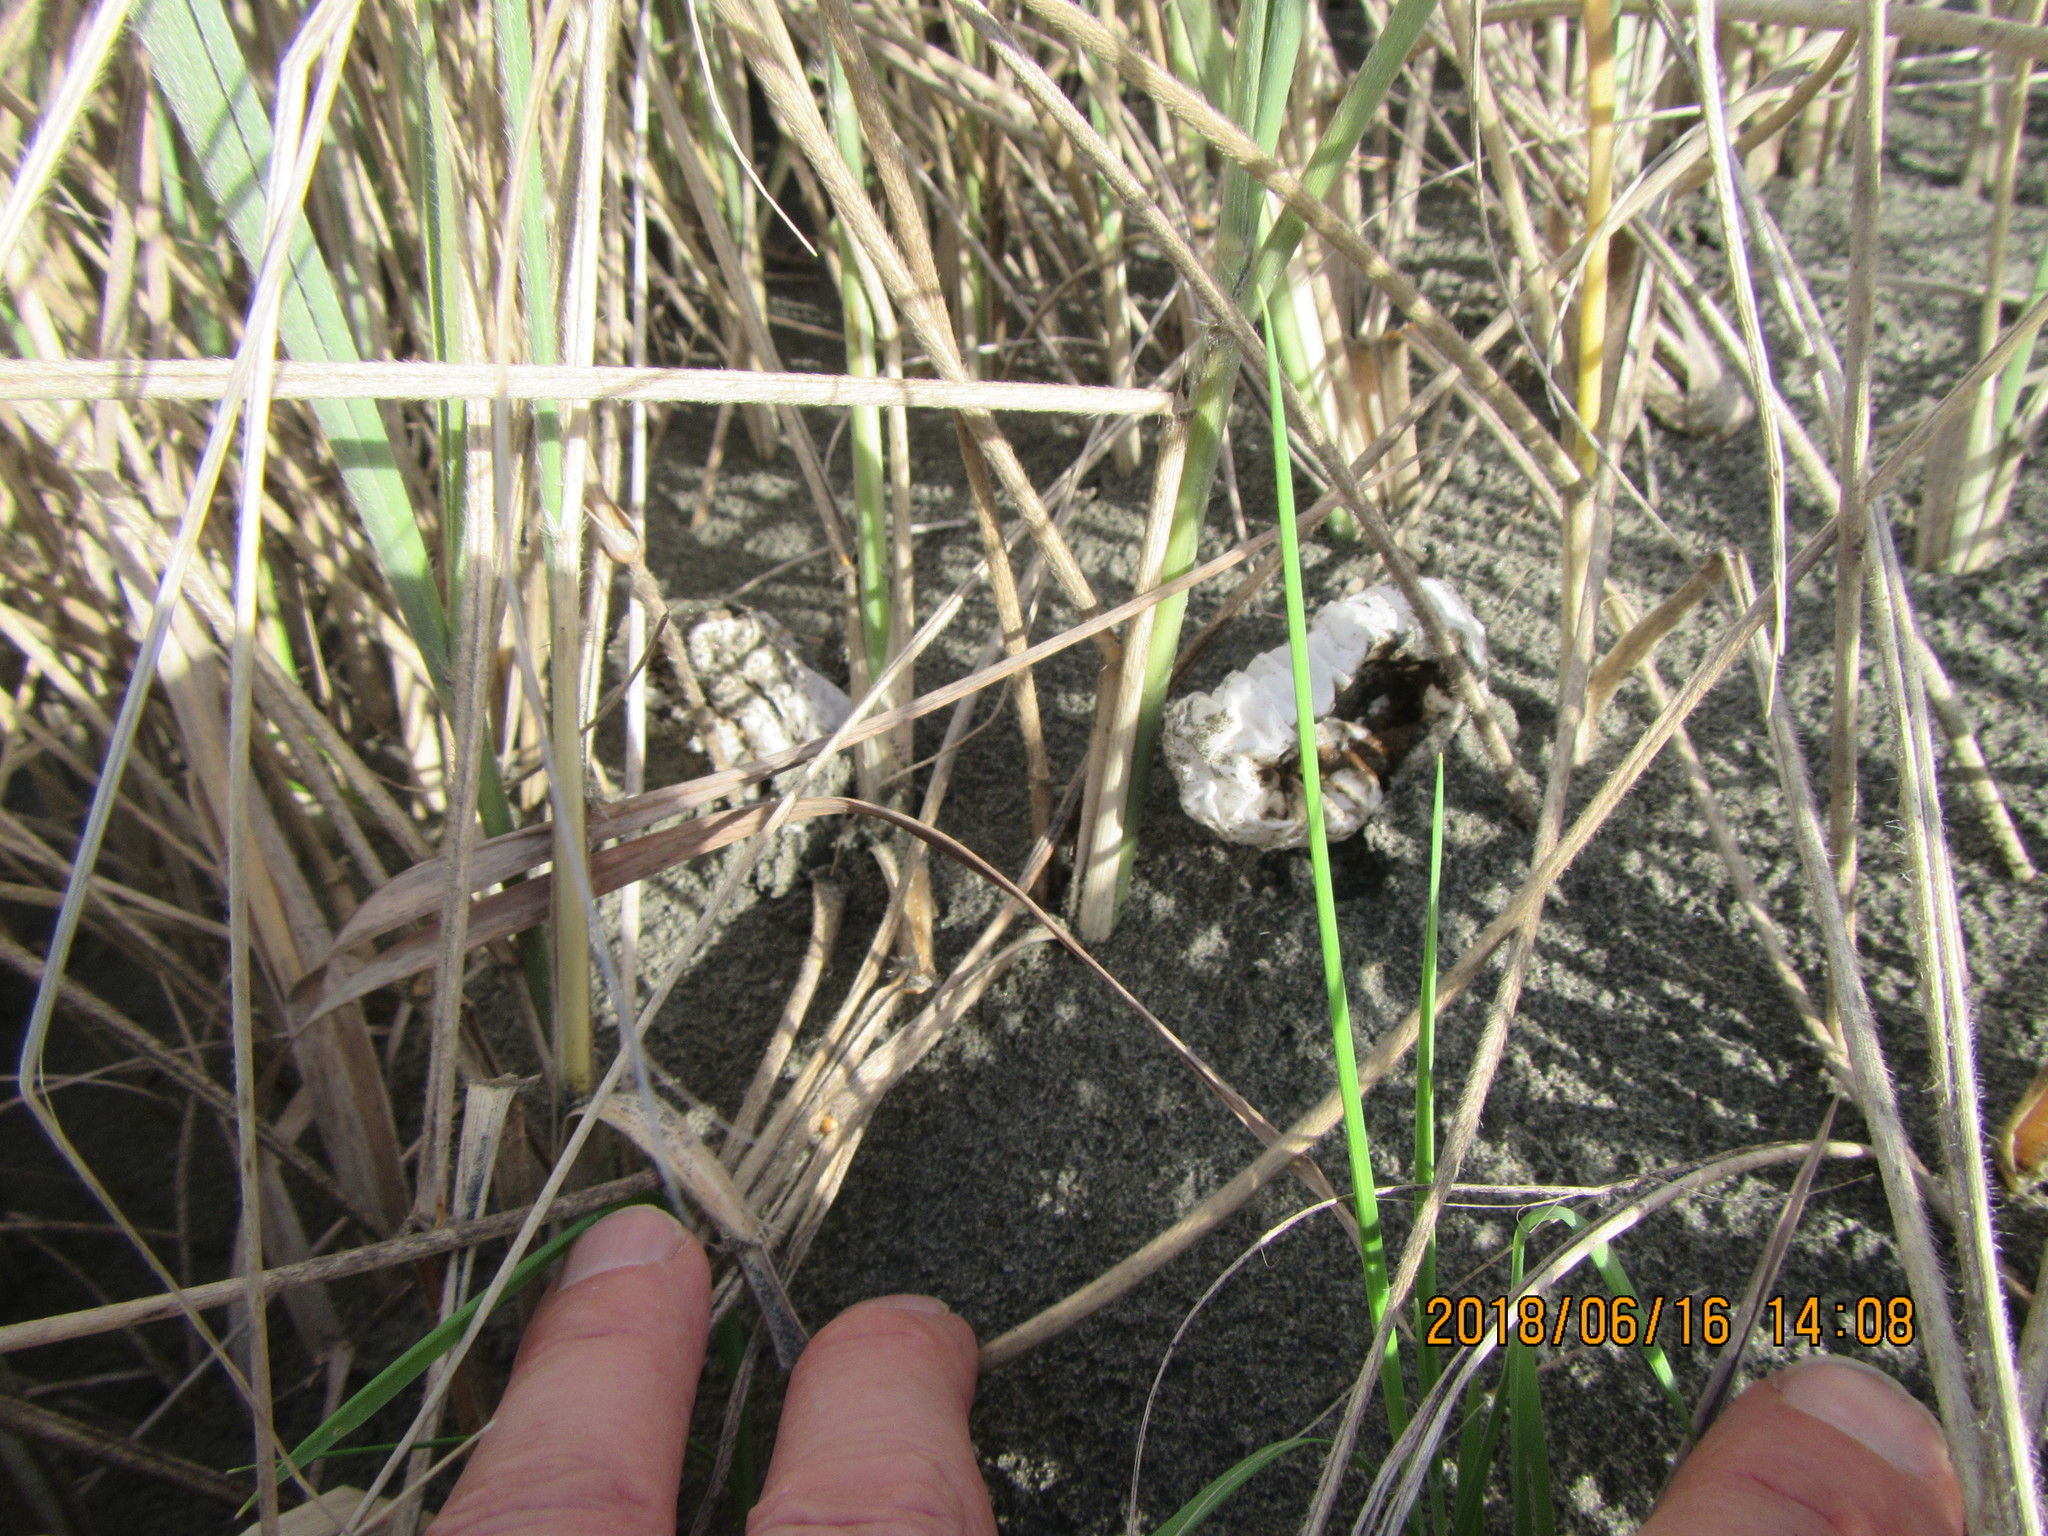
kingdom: Fungi
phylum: Basidiomycota
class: Agaricomycetes
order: Phallales
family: Phallaceae
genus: Ileodictyon
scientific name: Ileodictyon cibarium
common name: Basket fungus
